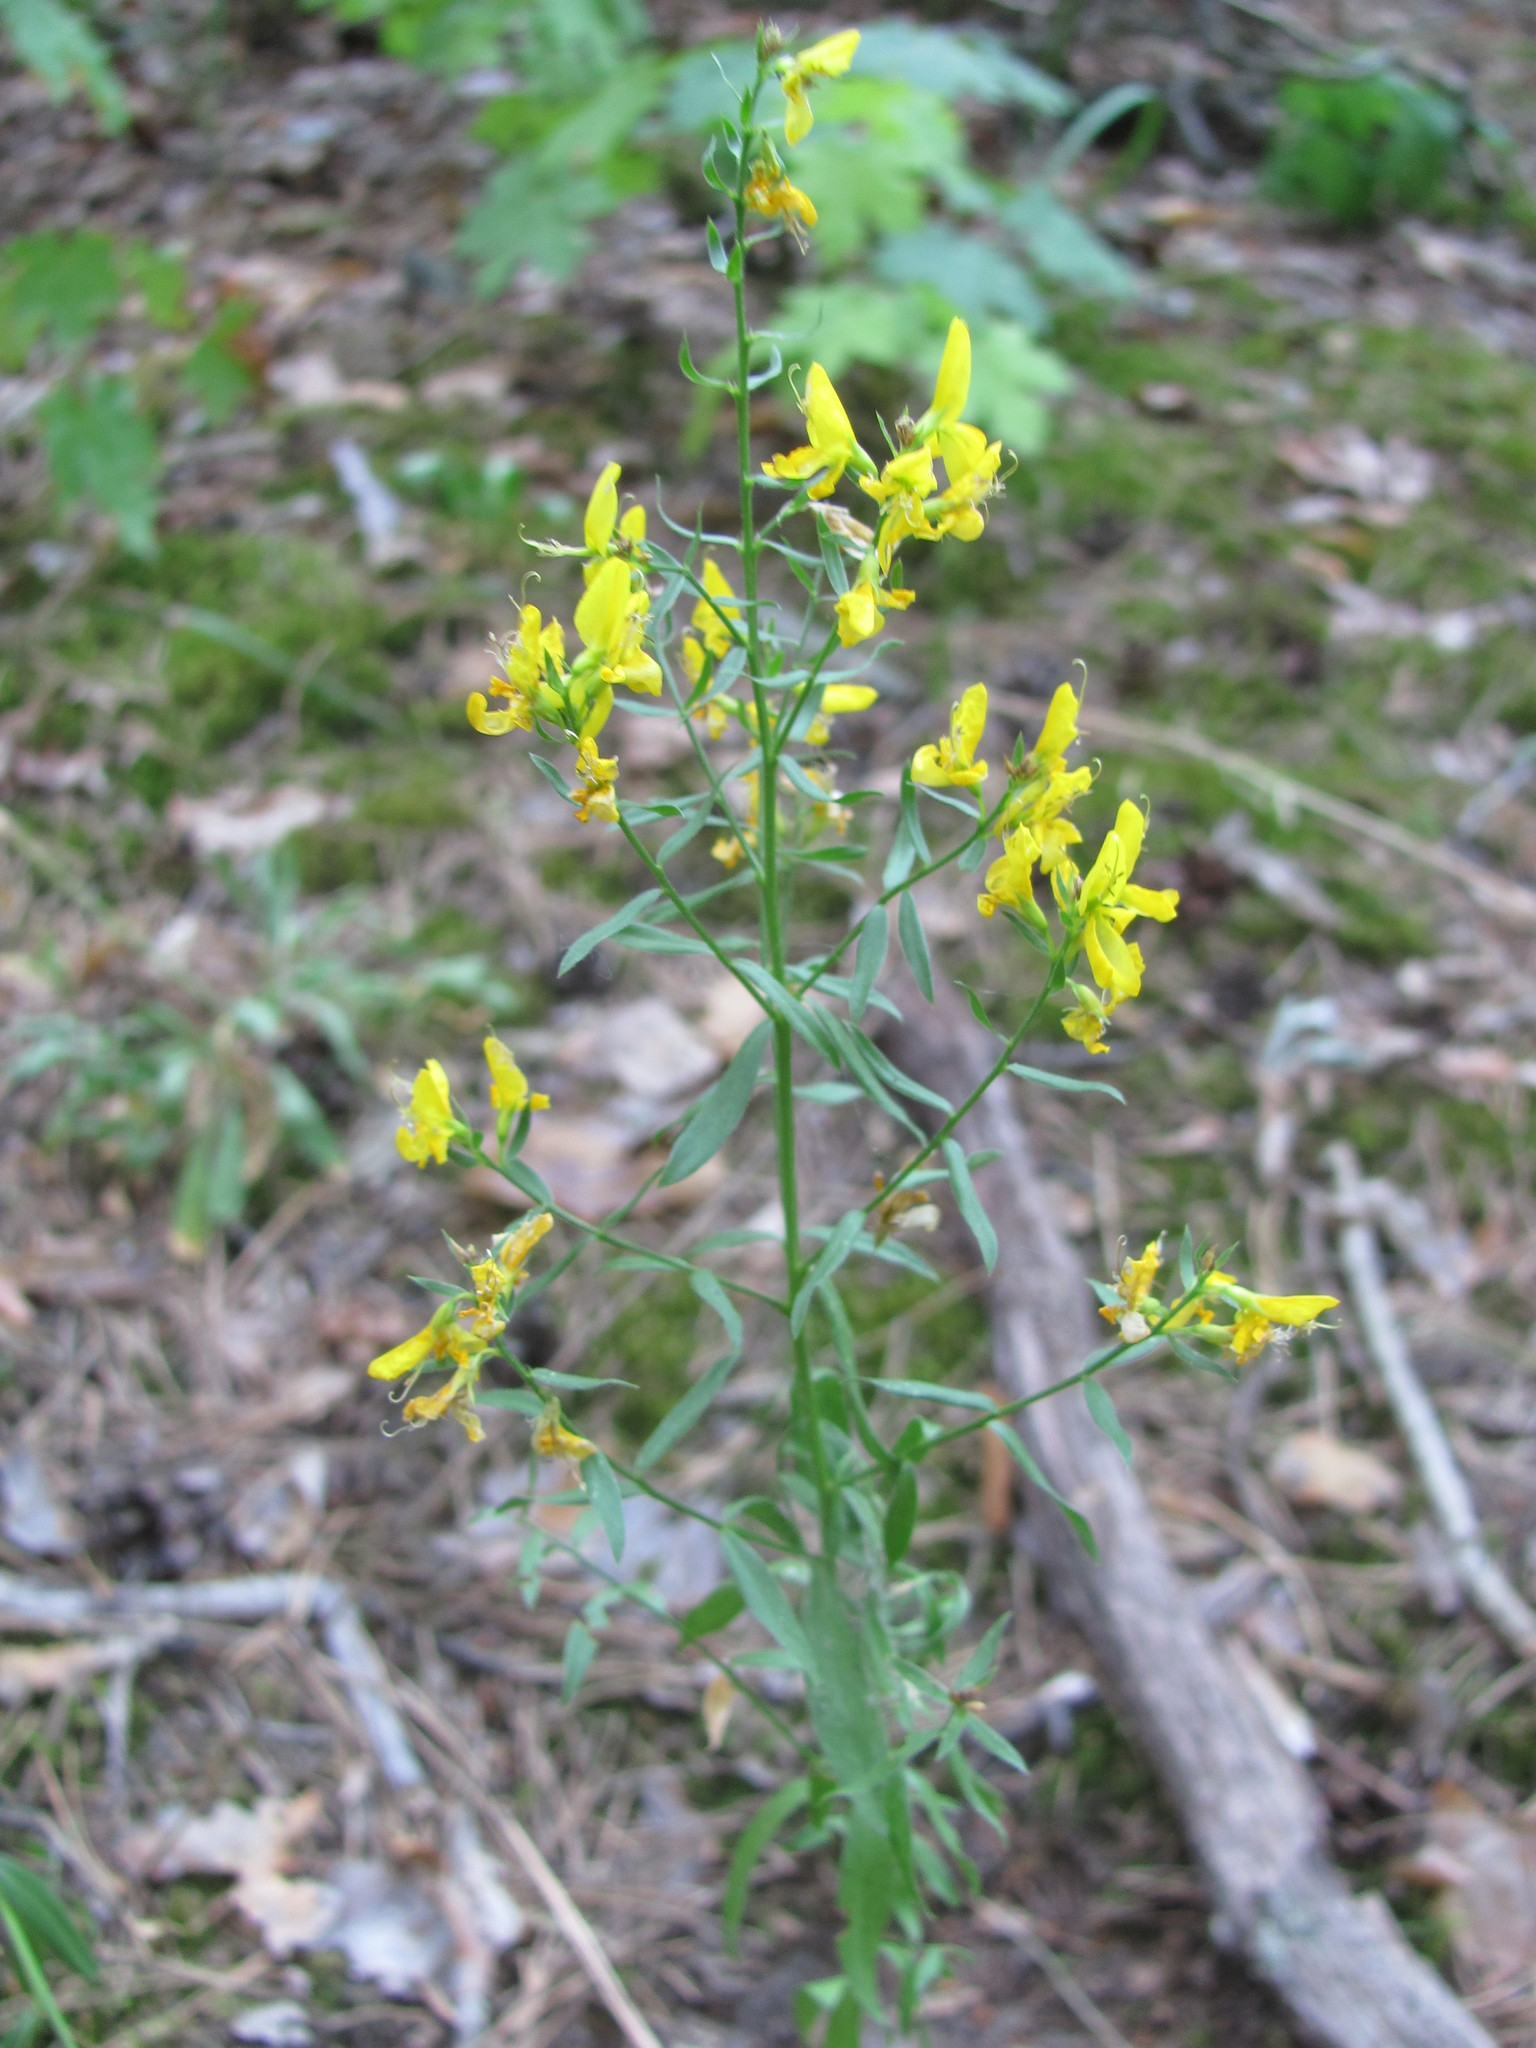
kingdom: Plantae
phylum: Tracheophyta
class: Magnoliopsida
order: Fabales
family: Fabaceae
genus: Genista
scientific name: Genista tinctoria
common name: Dyer's greenweed
